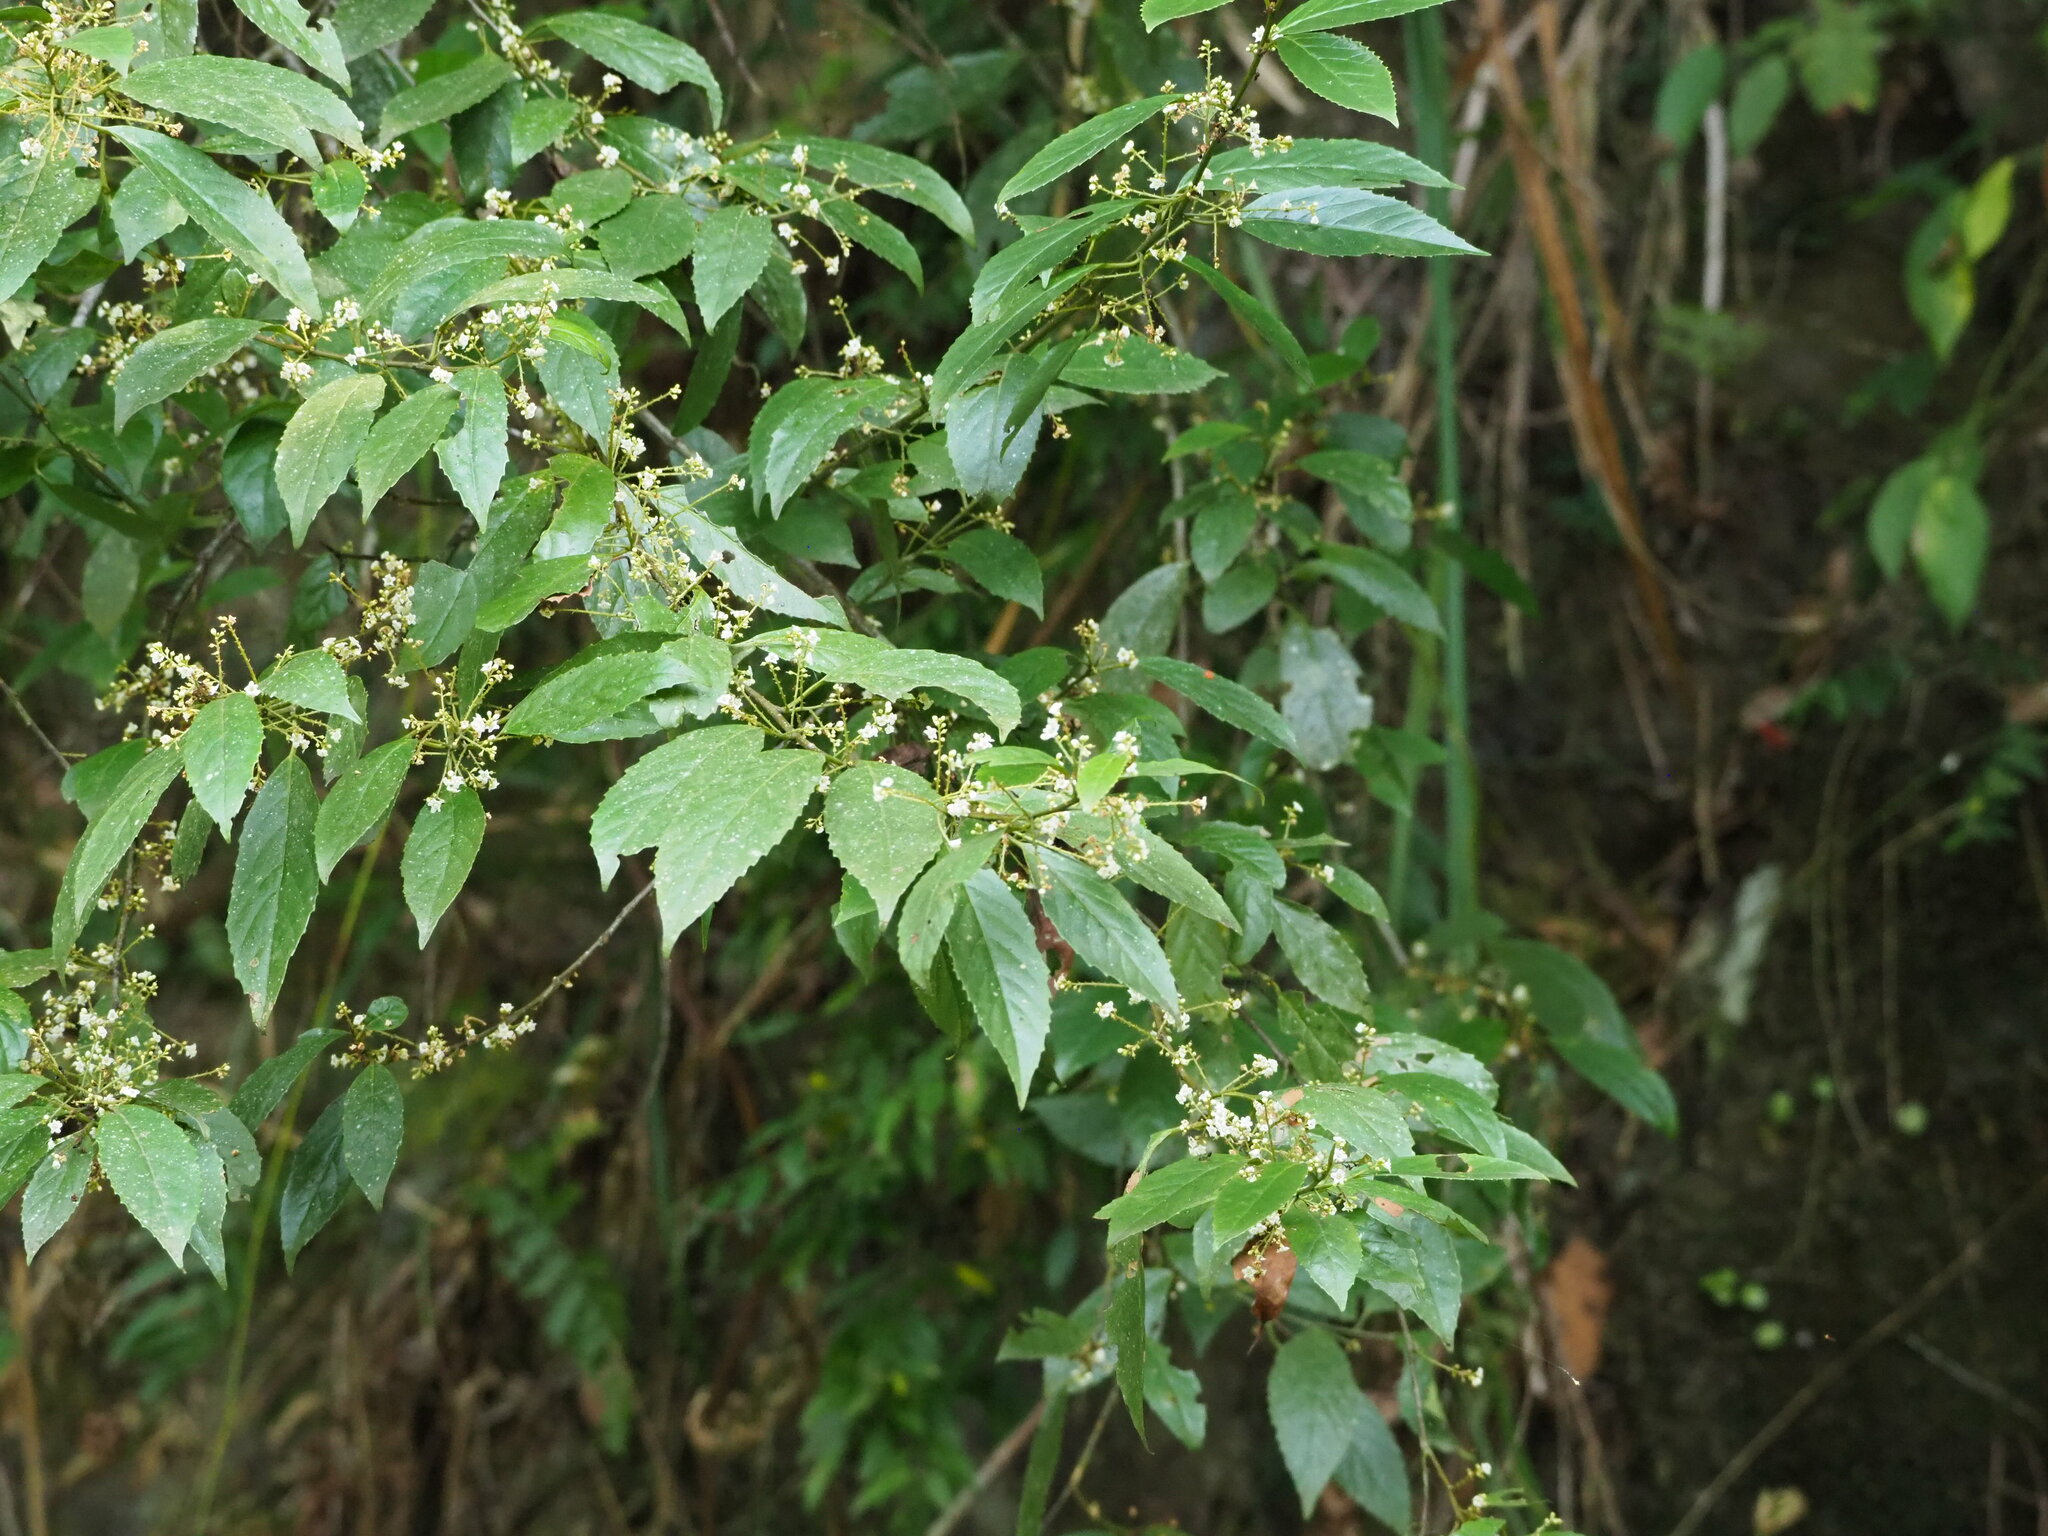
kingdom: Plantae
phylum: Tracheophyta
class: Magnoliopsida
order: Ericales
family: Primulaceae
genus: Maesa
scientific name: Maesa perlaria
